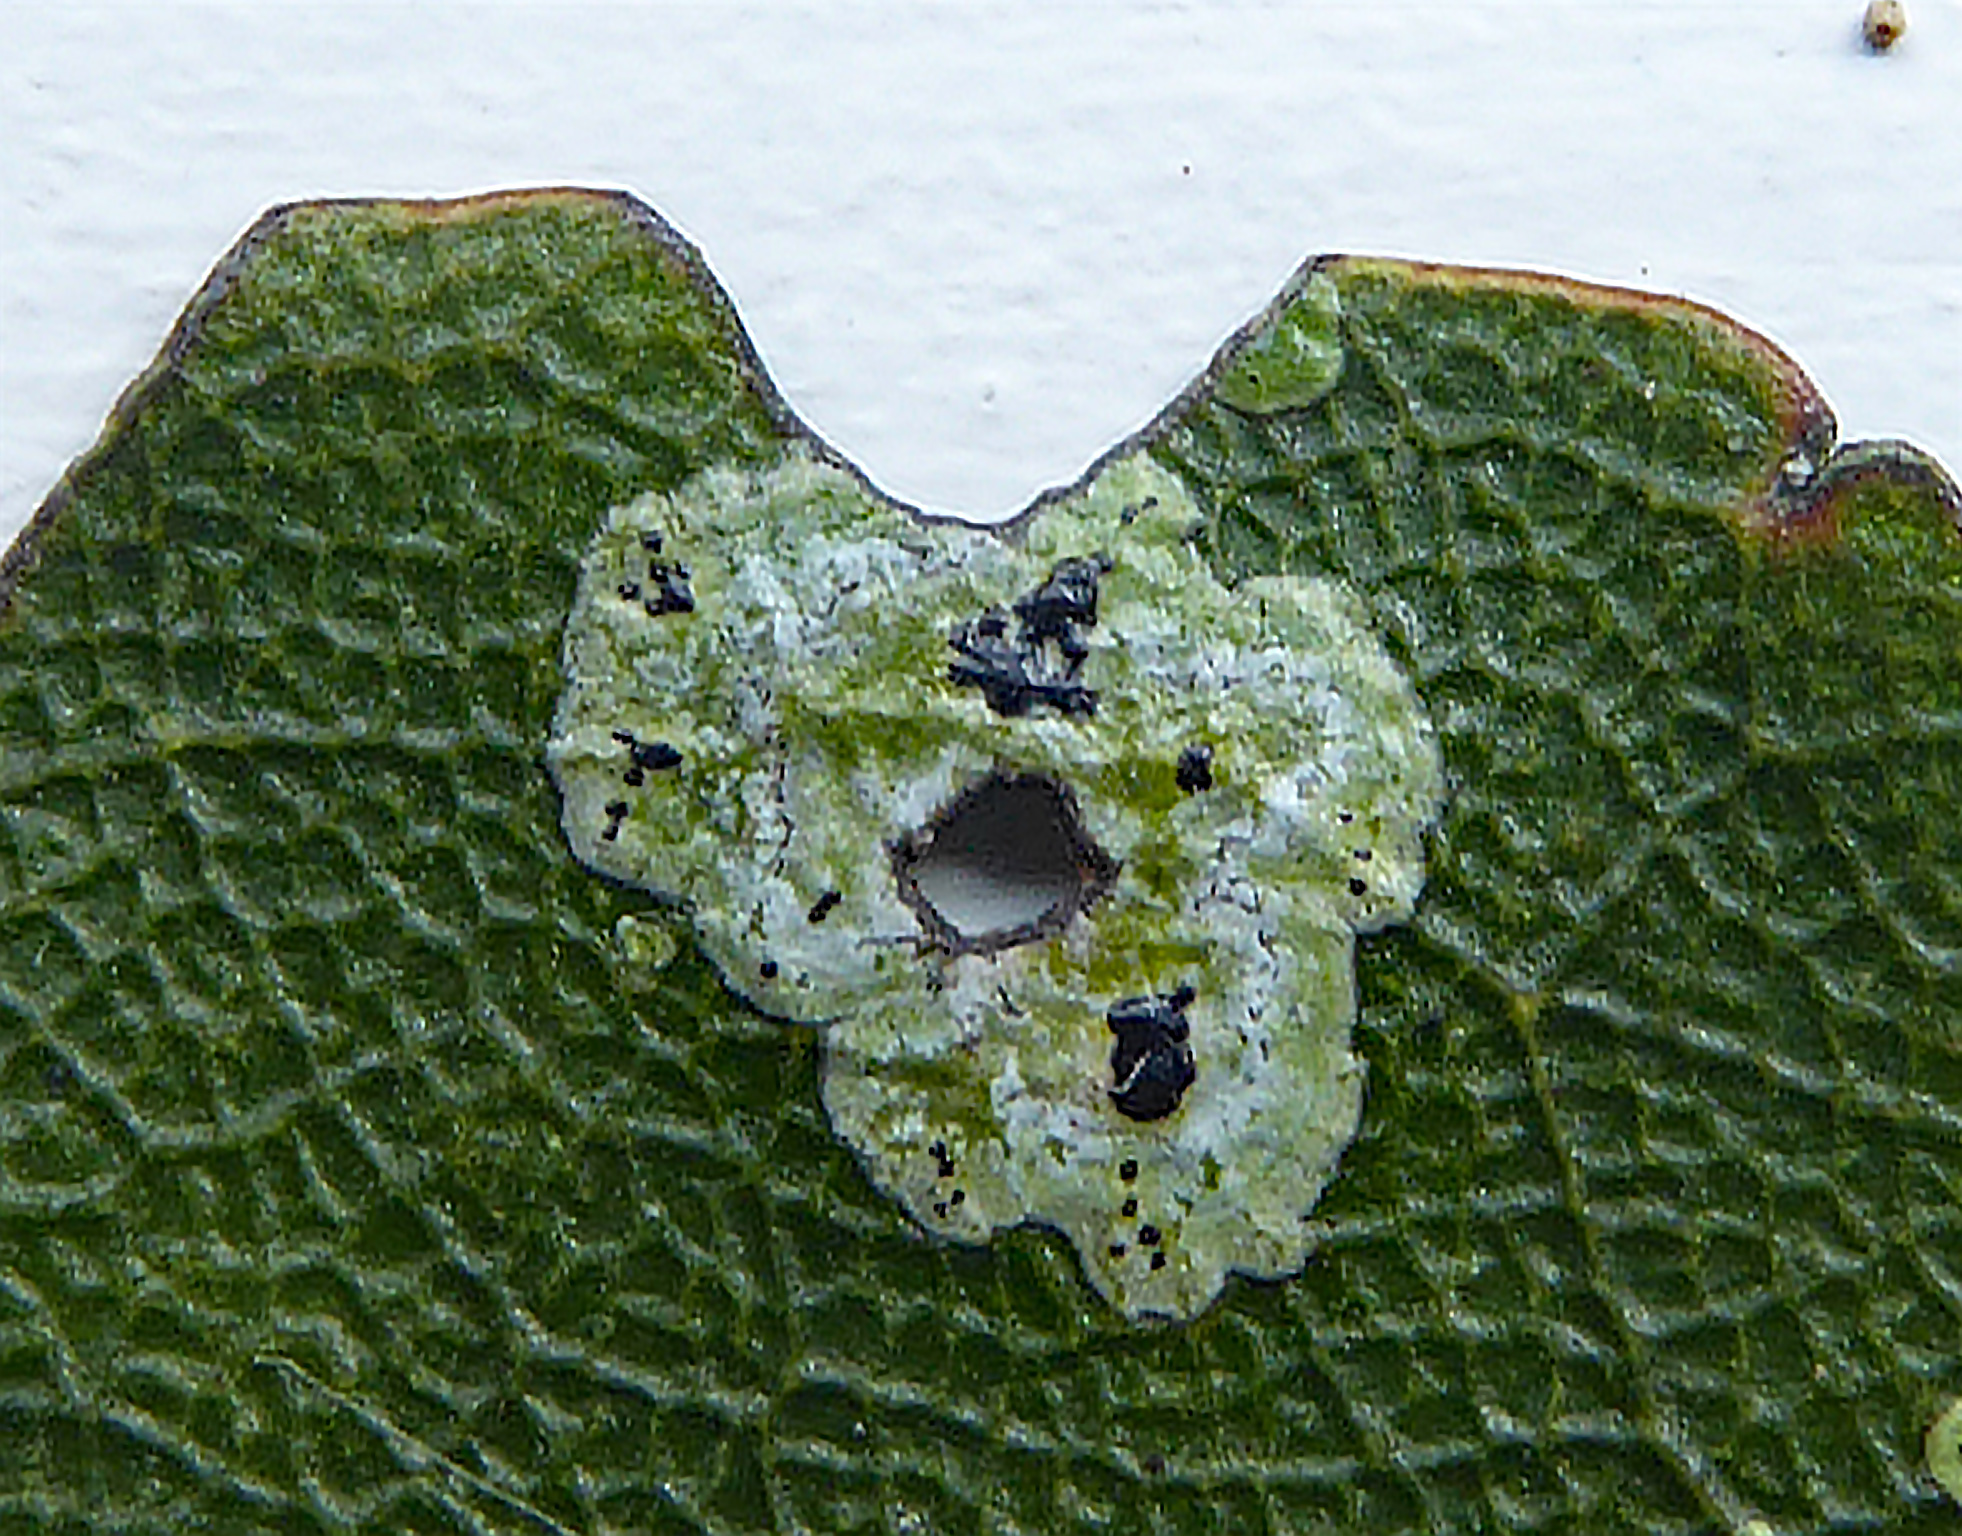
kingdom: Fungi
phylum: Ascomycota
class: Dothideomycetes
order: Strigulales
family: Strigulaceae
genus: Strigula
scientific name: Strigula fossulicola
